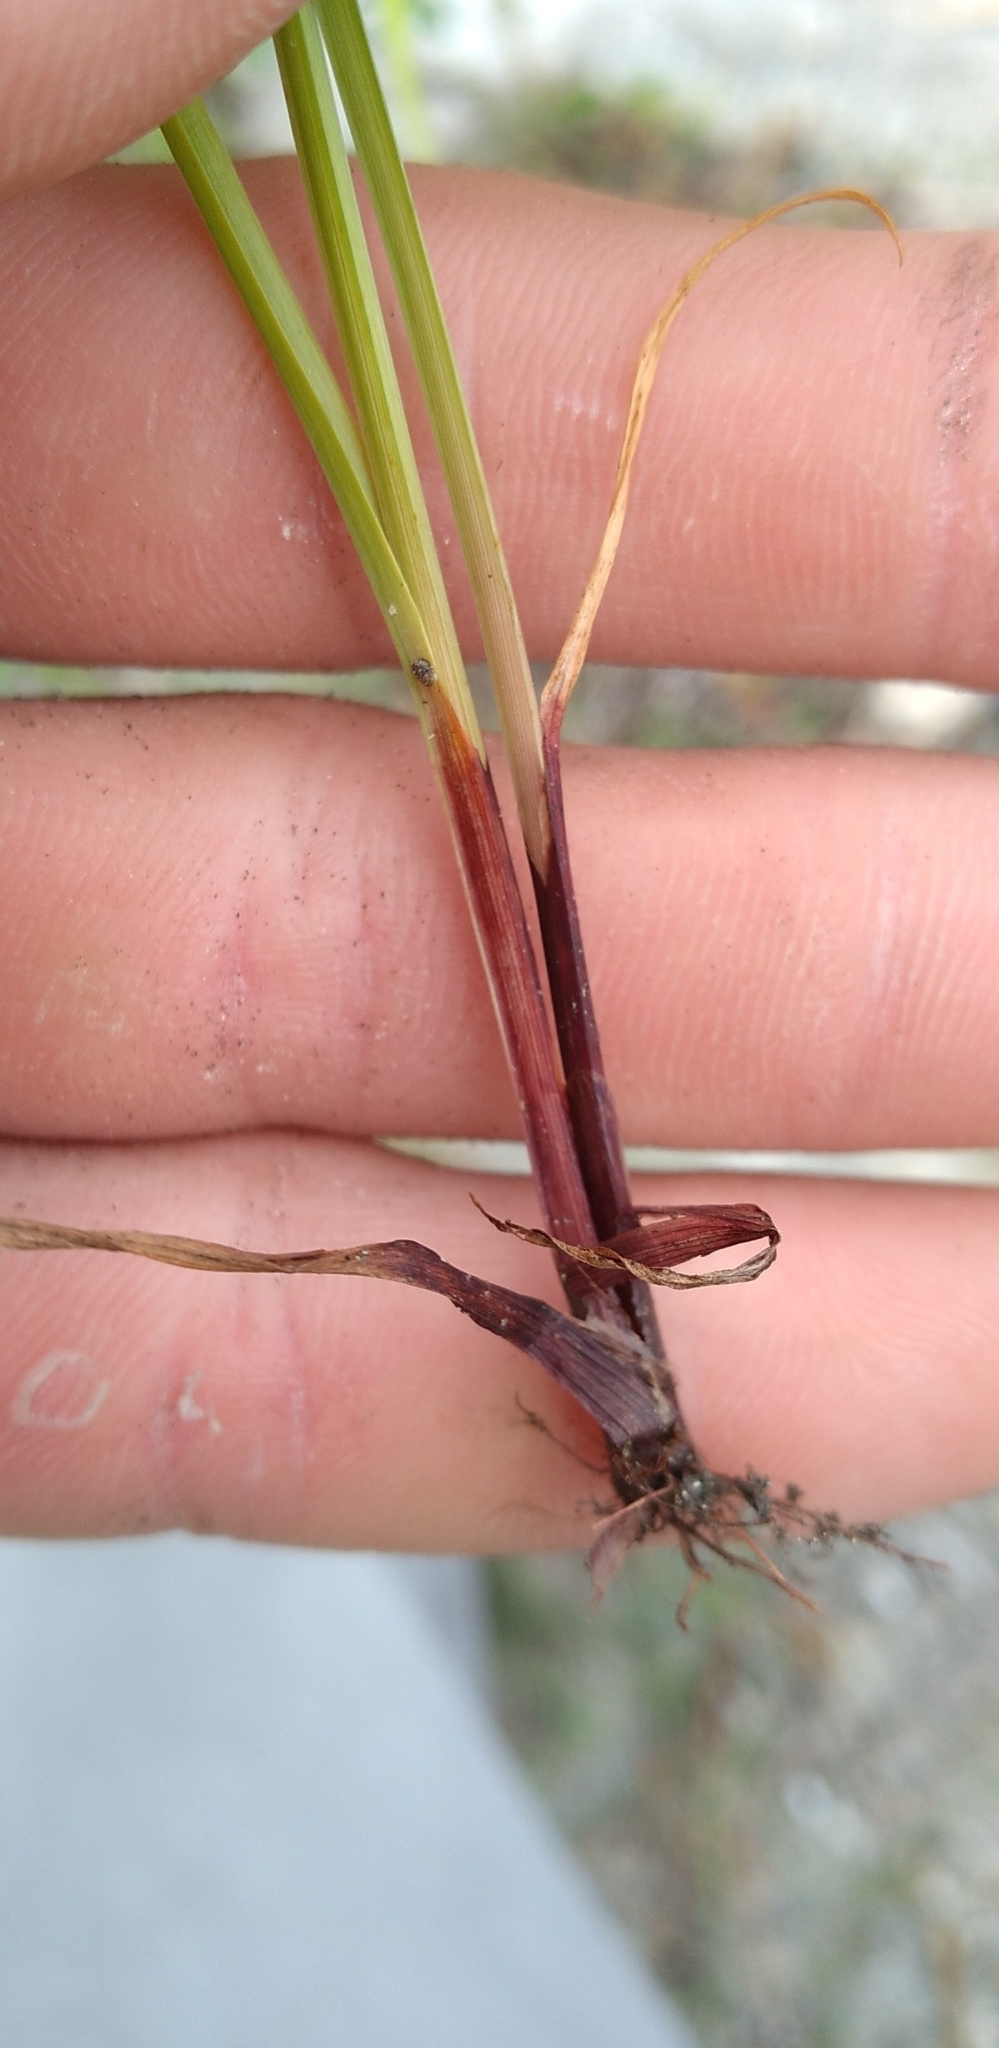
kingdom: Plantae
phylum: Tracheophyta
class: Liliopsida
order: Poales
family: Cyperaceae
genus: Cyperus
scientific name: Cyperus squarrosus
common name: Awned cyperus
